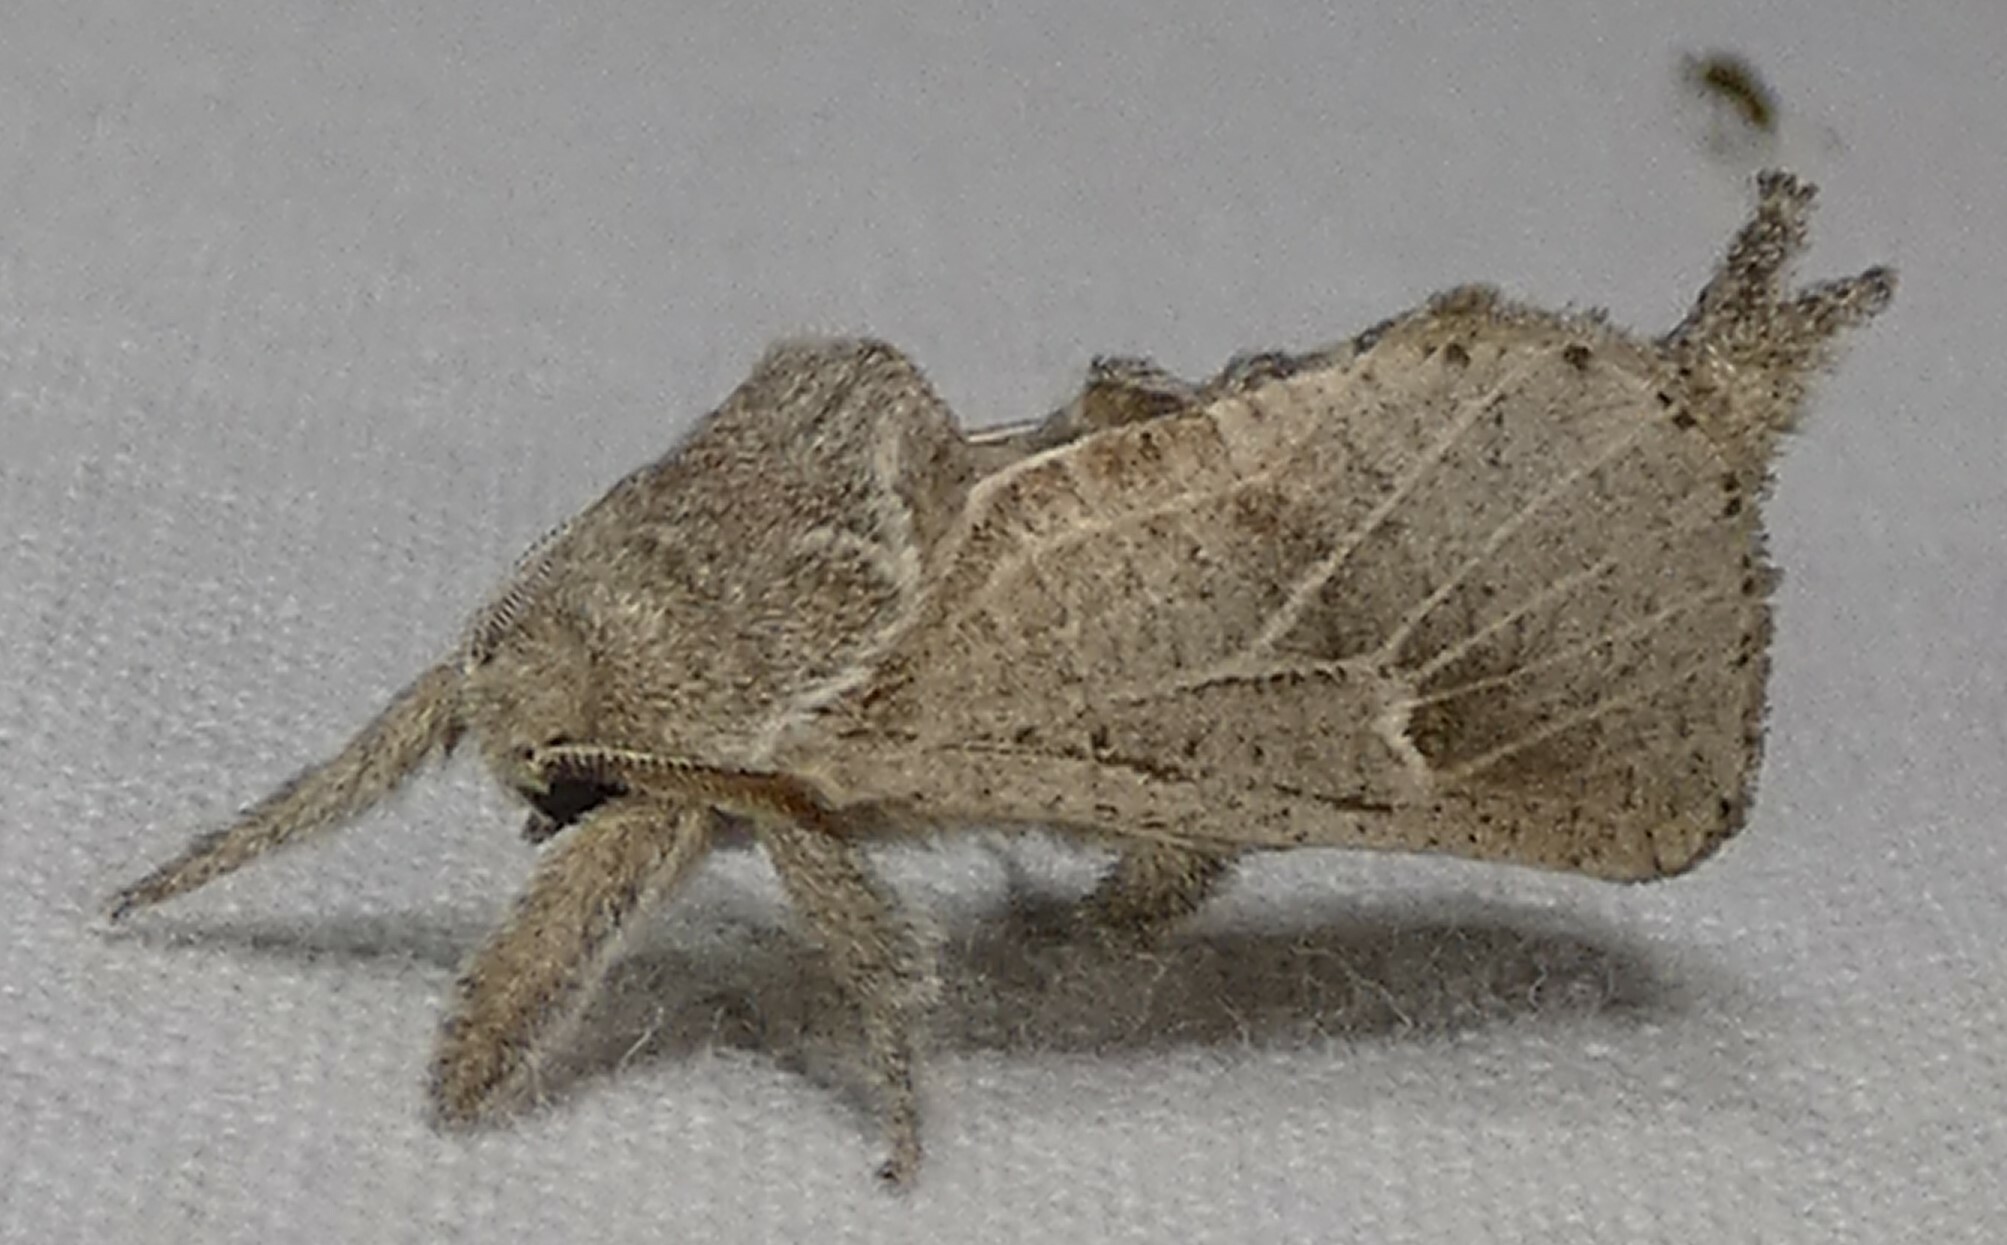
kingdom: Animalia
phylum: Arthropoda
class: Insecta
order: Lepidoptera
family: Cossidae
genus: Givira
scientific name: Givira anna
